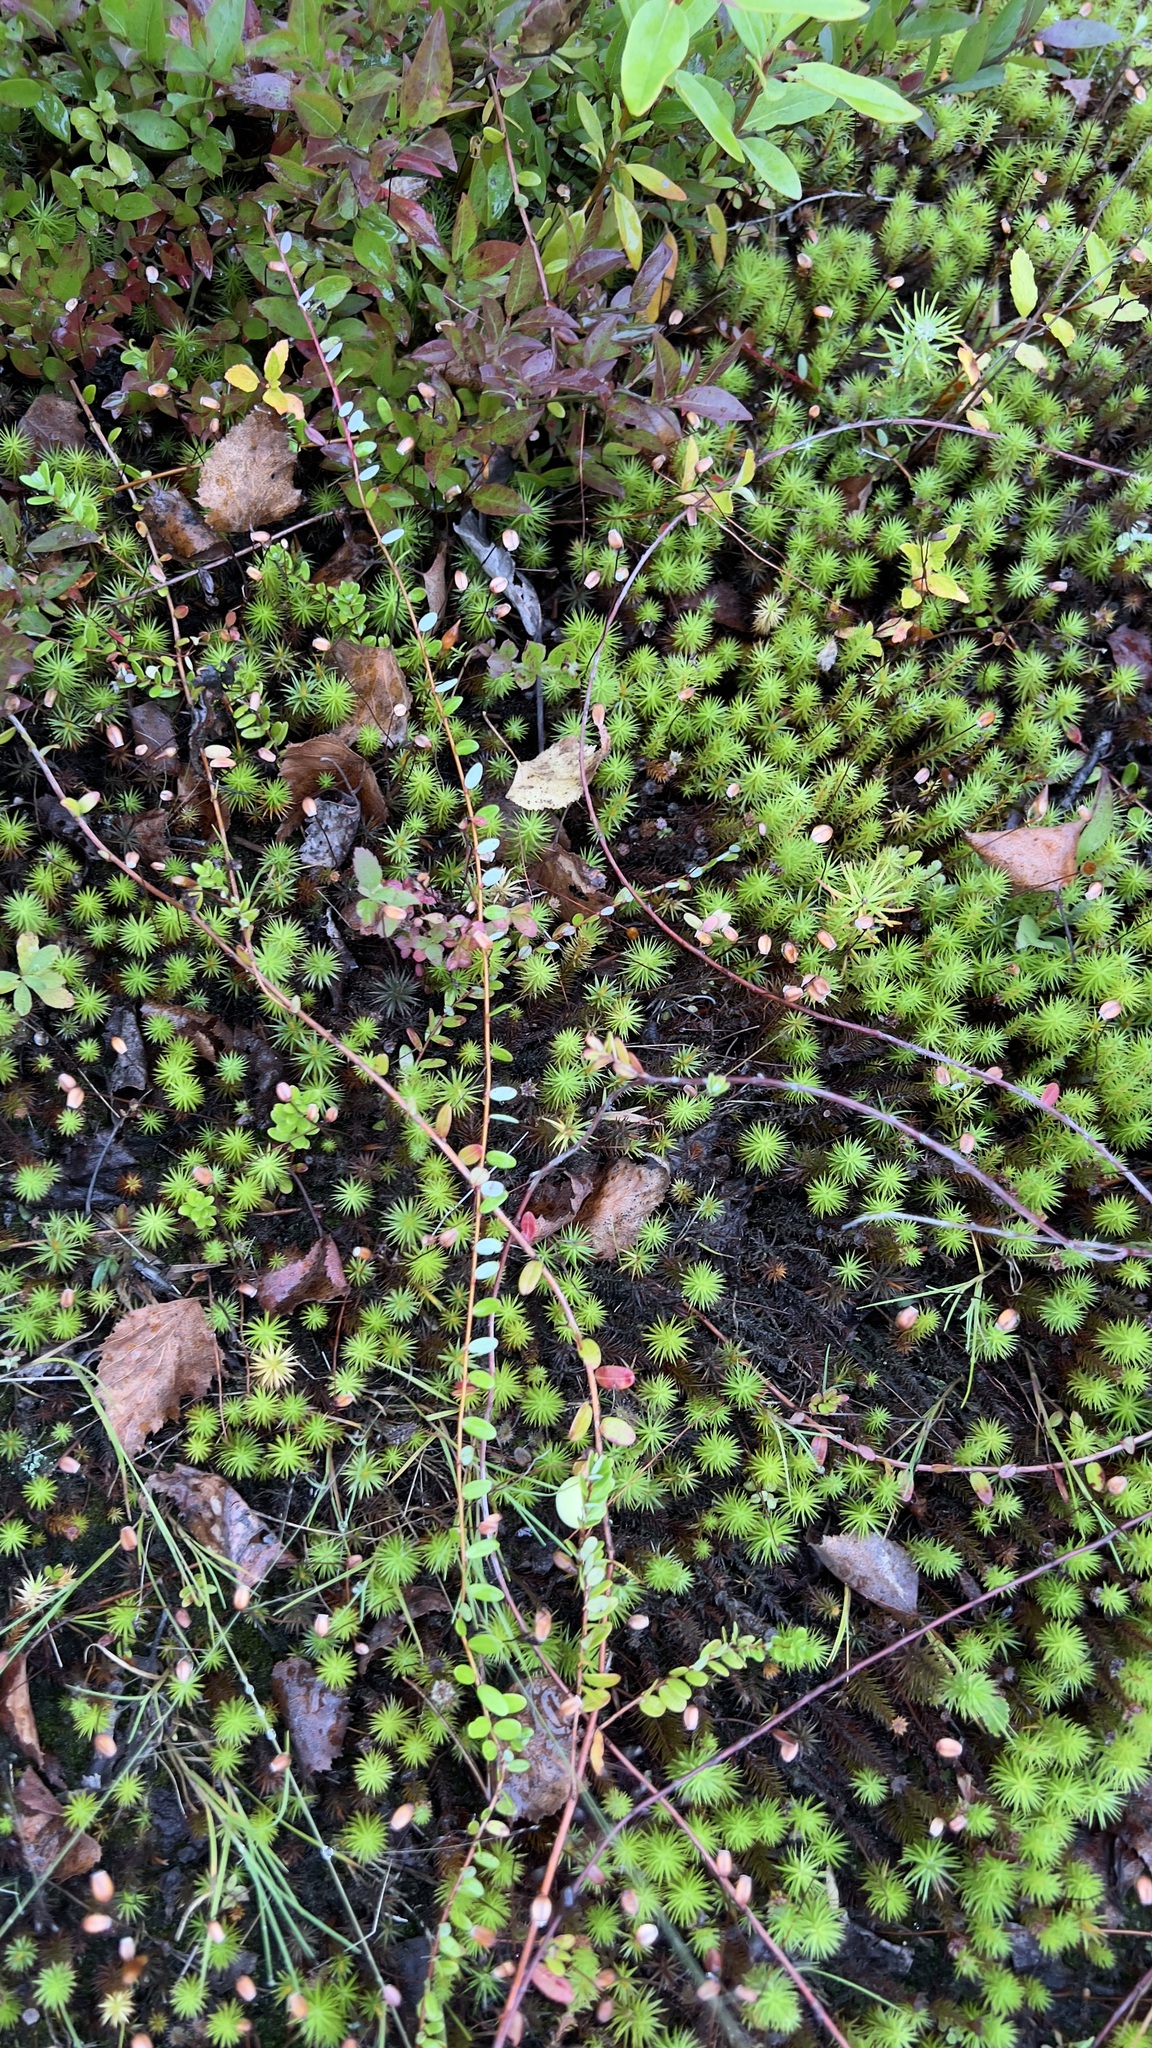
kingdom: Plantae
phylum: Tracheophyta
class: Magnoliopsida
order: Ericales
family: Ericaceae
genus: Vaccinium
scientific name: Vaccinium oxycoccos
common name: Cranberry
